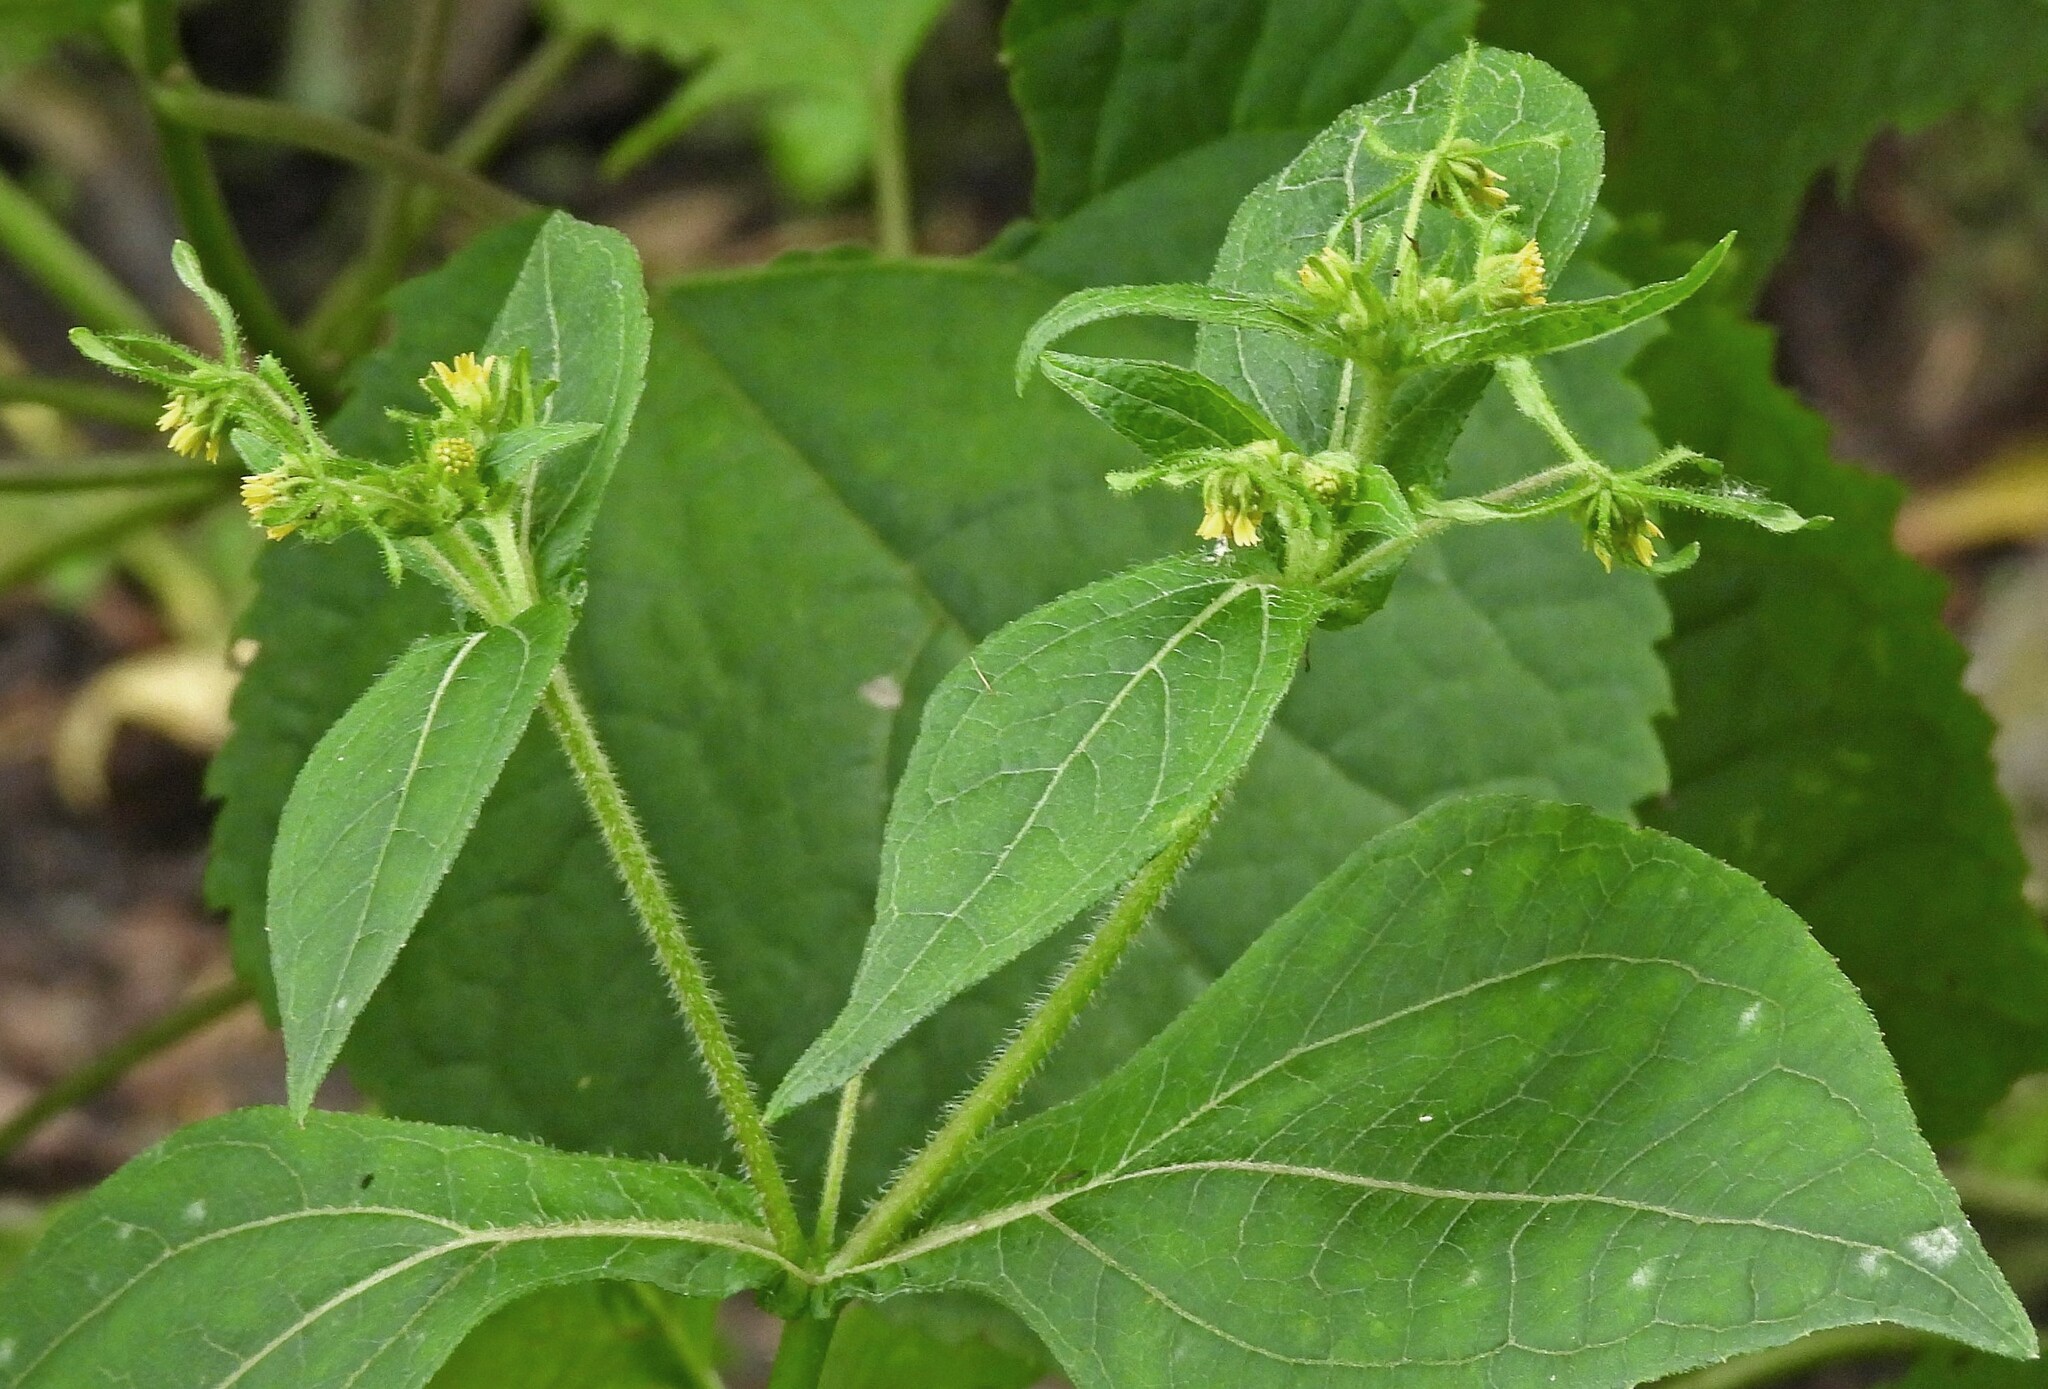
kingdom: Plantae
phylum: Tracheophyta
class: Magnoliopsida
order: Asterales
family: Asteraceae
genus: Sigesbeckia
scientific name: Sigesbeckia jorullensis
